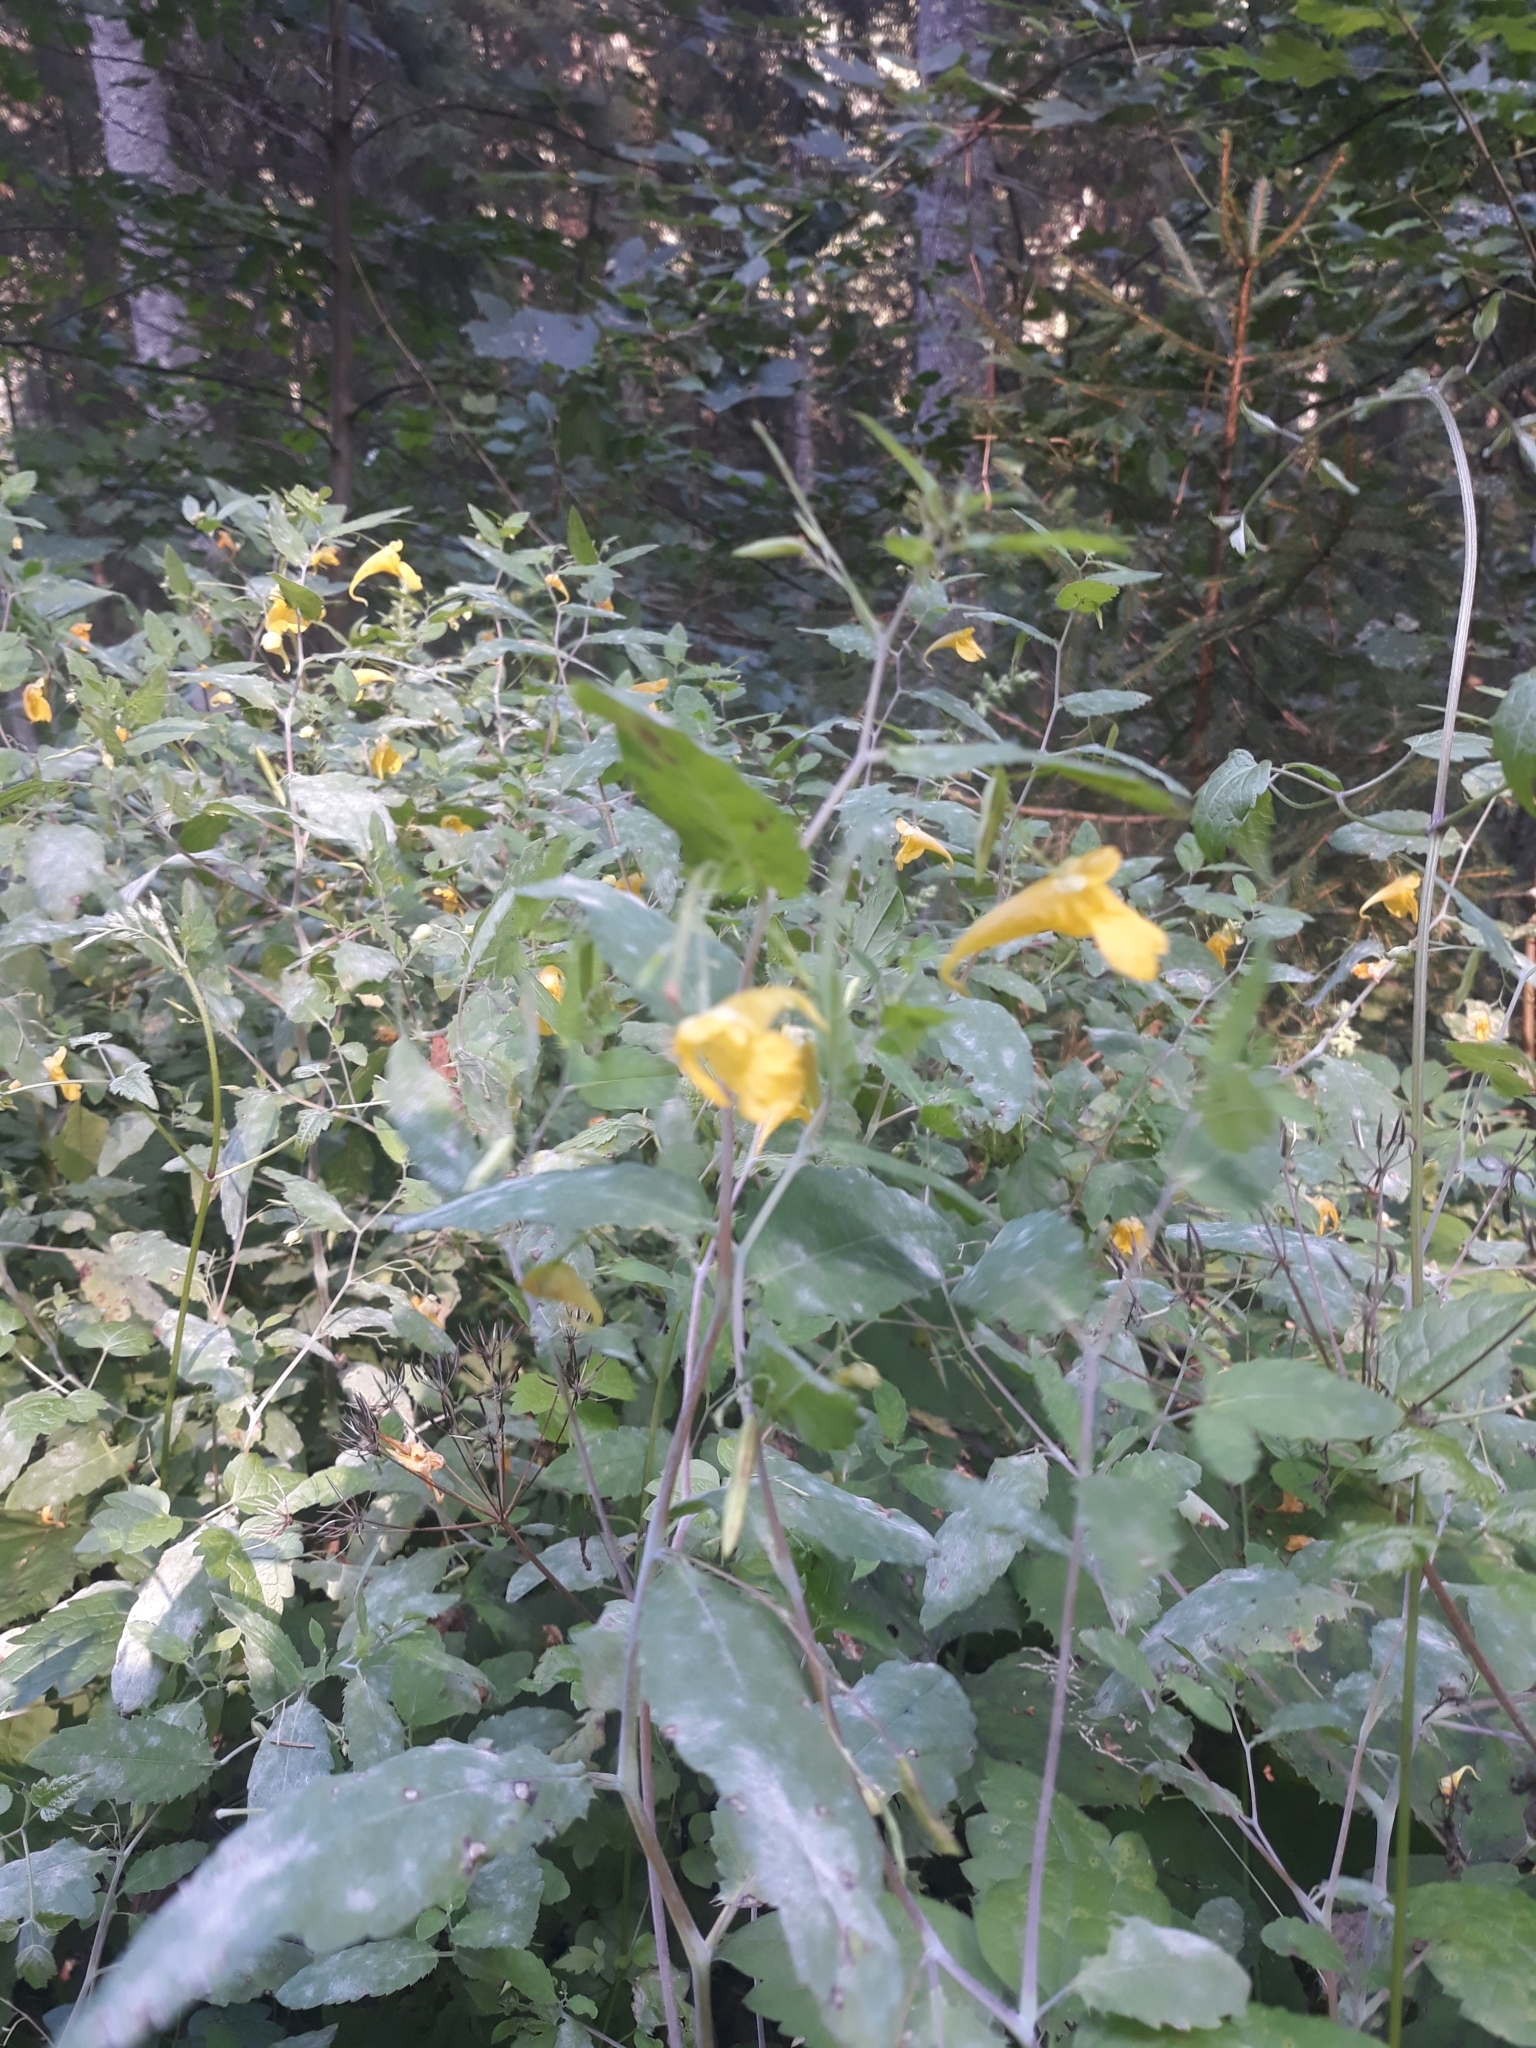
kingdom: Plantae
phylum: Tracheophyta
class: Magnoliopsida
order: Ericales
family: Balsaminaceae
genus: Impatiens
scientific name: Impatiens noli-tangere
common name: Touch-me-not balsam
